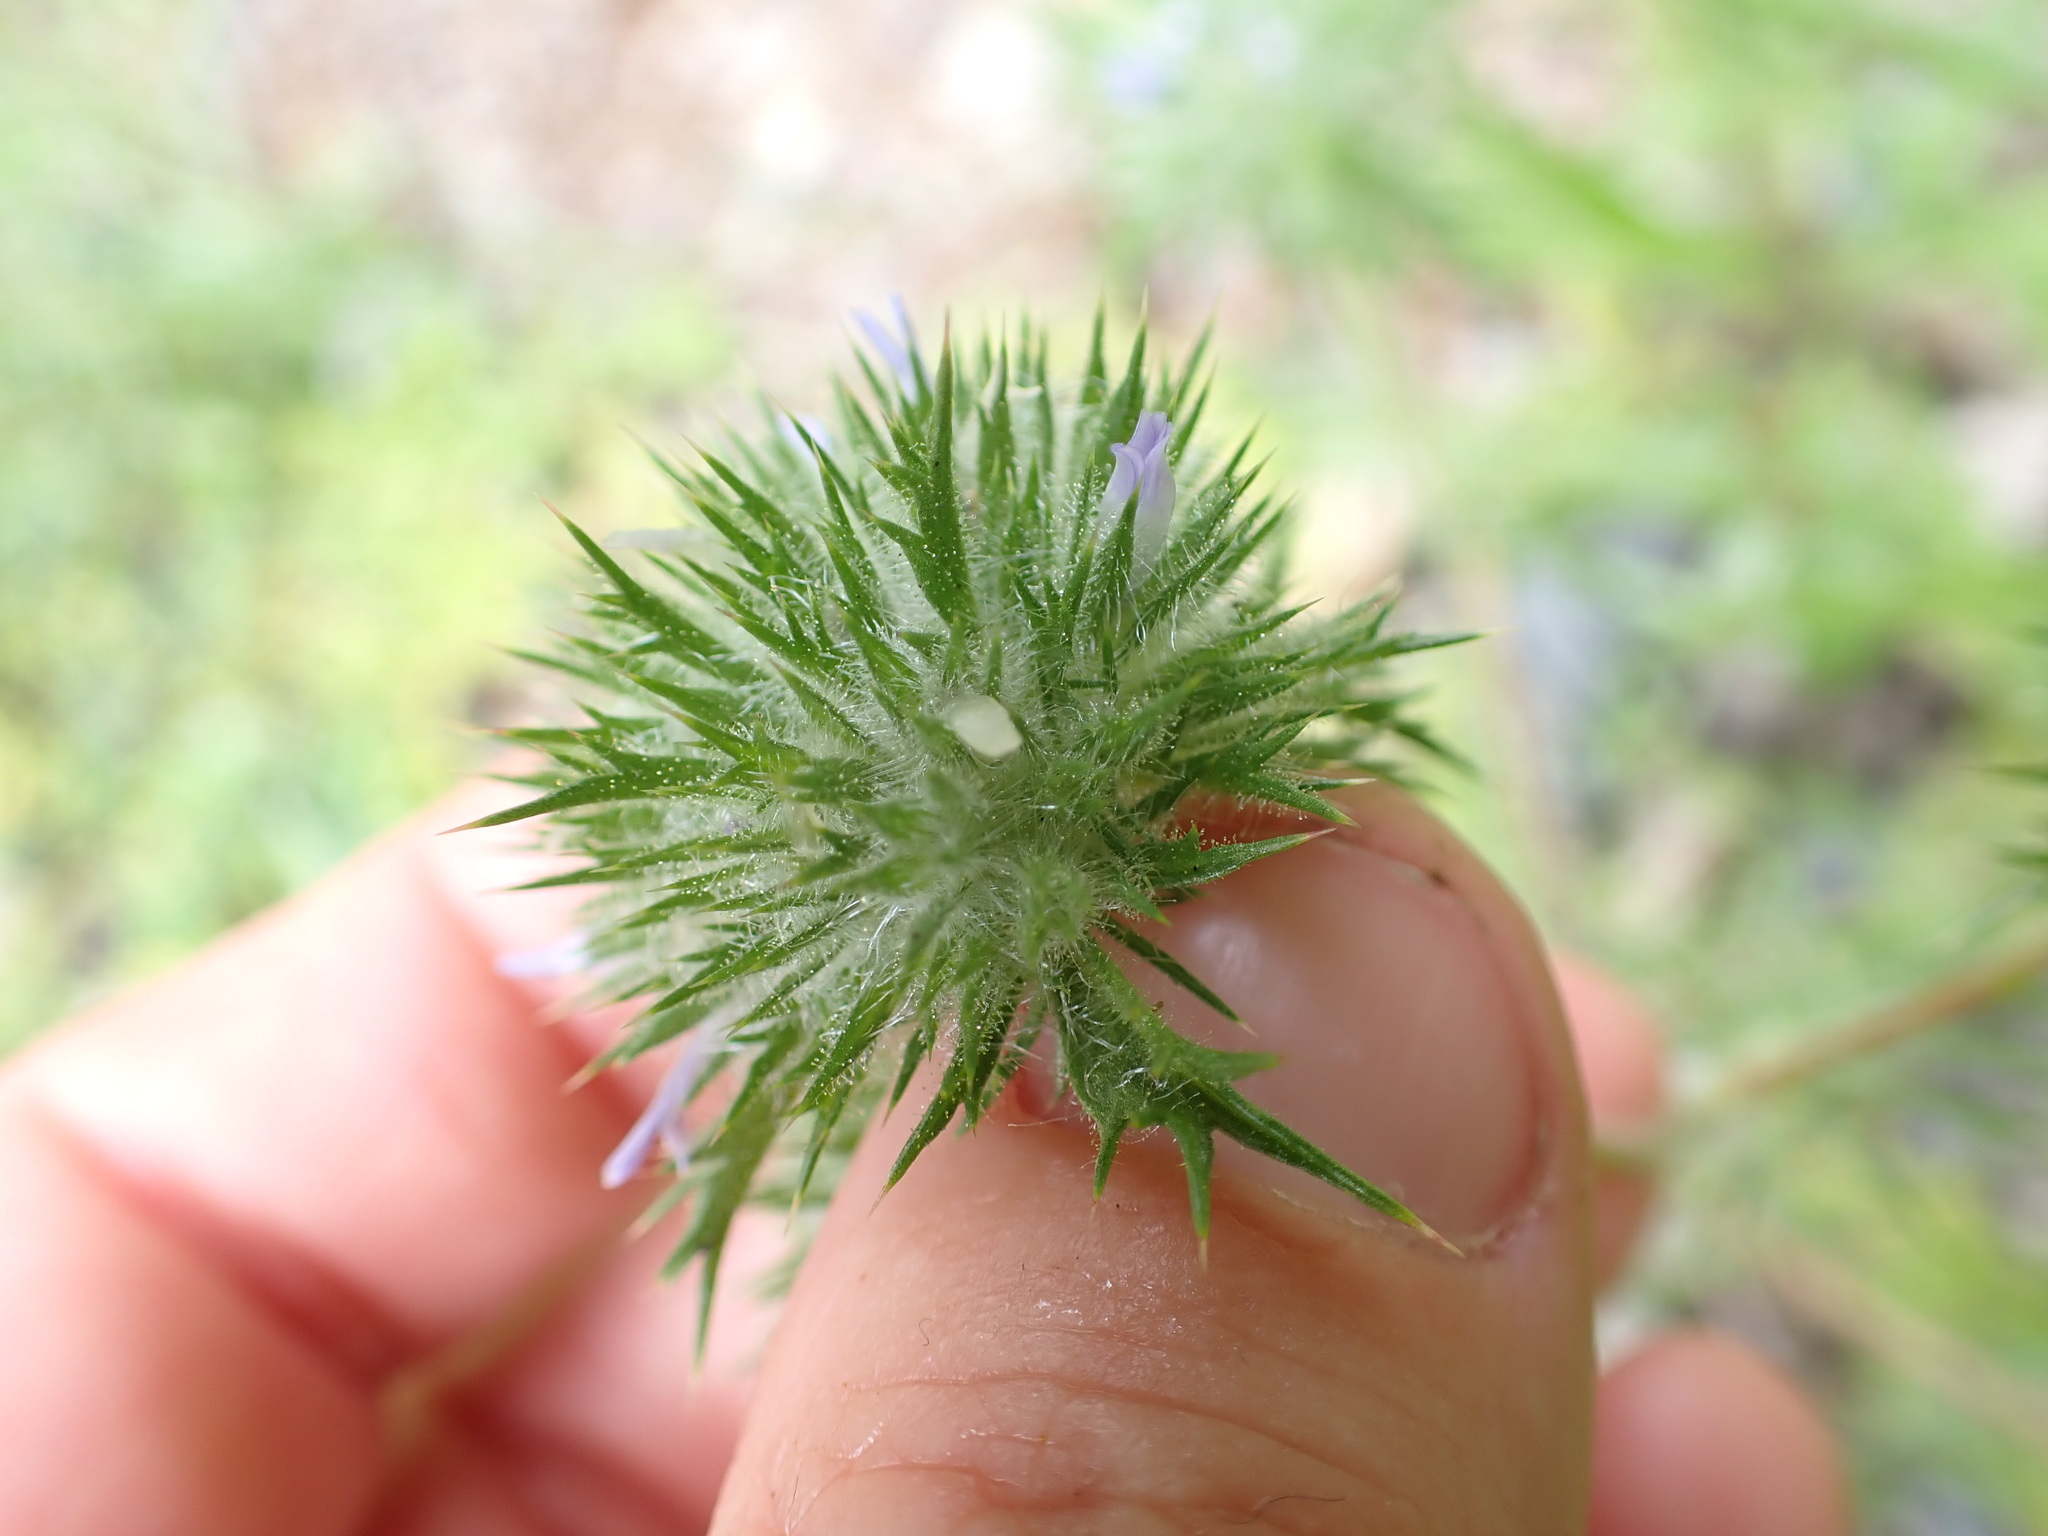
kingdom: Plantae
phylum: Tracheophyta
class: Magnoliopsida
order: Ericales
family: Polemoniaceae
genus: Navarretia
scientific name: Navarretia squarrosa
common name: Skunkweed
